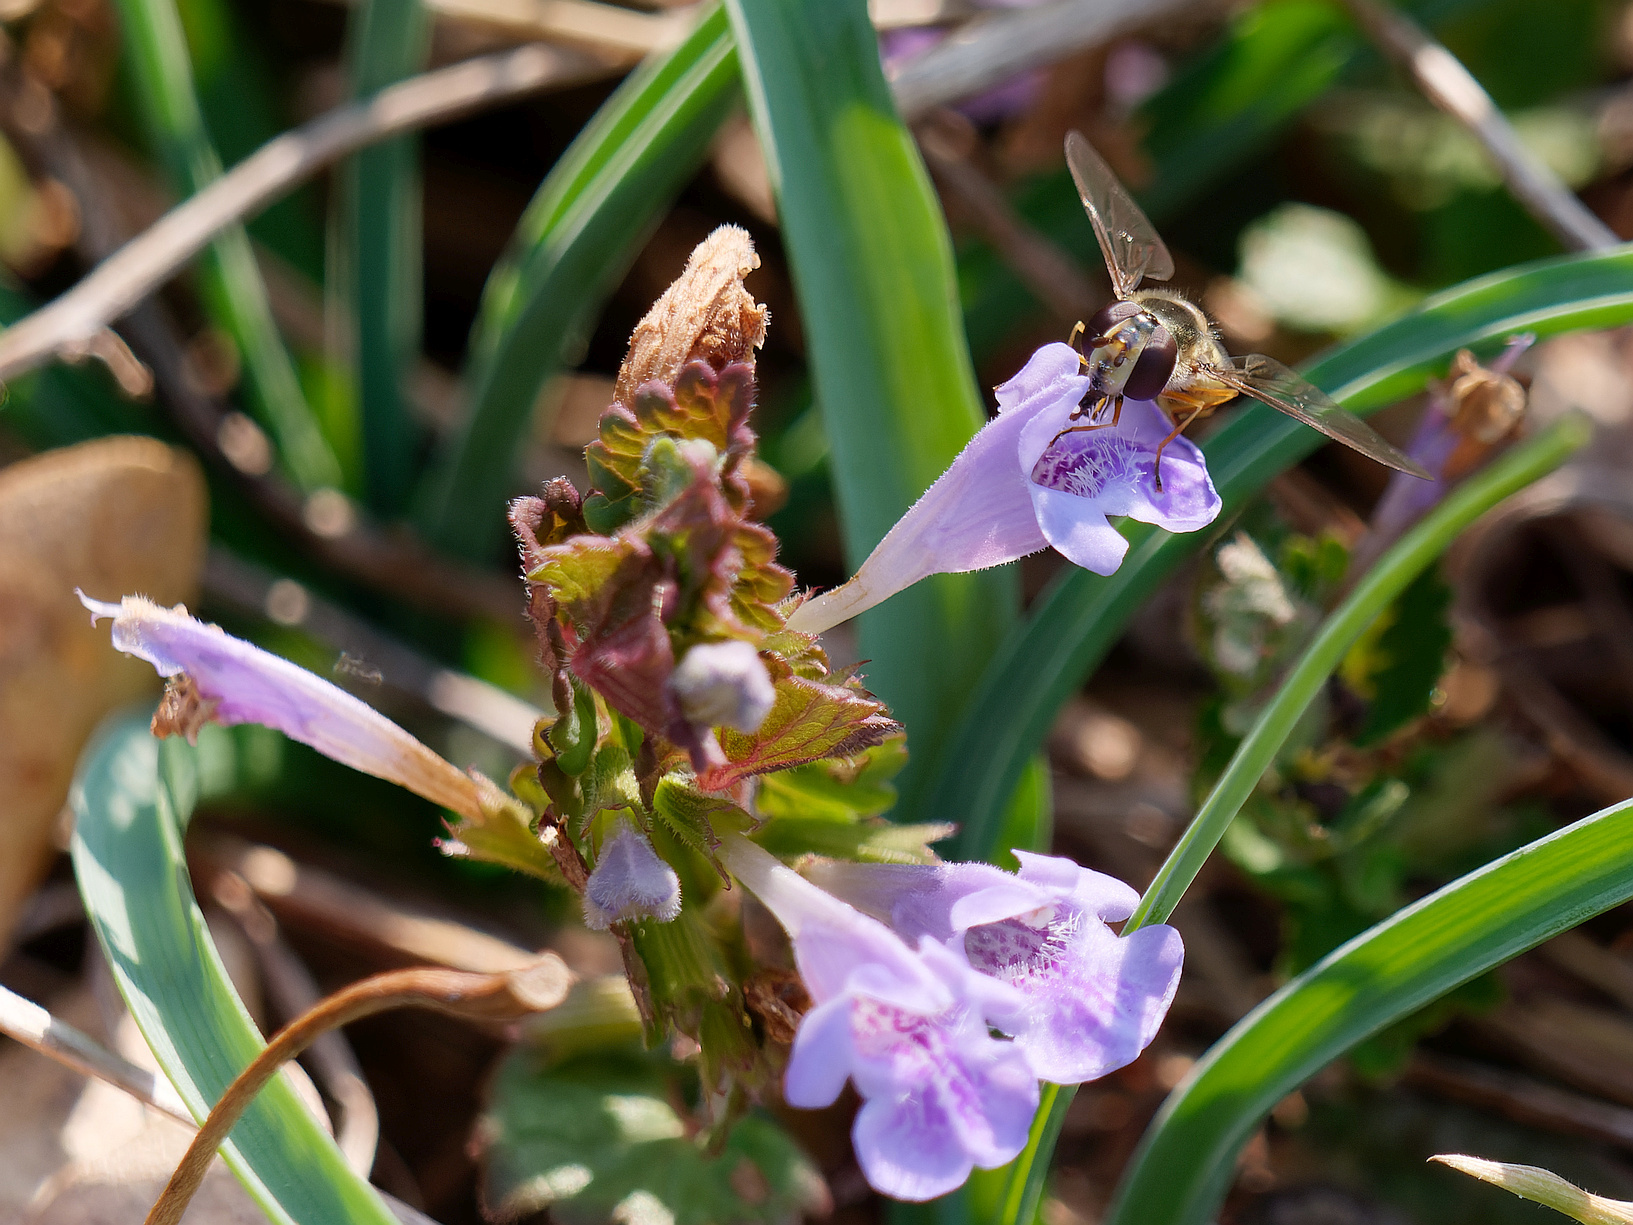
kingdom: Plantae
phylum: Tracheophyta
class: Magnoliopsida
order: Lamiales
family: Lamiaceae
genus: Glechoma
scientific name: Glechoma hederacea
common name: Ground ivy
